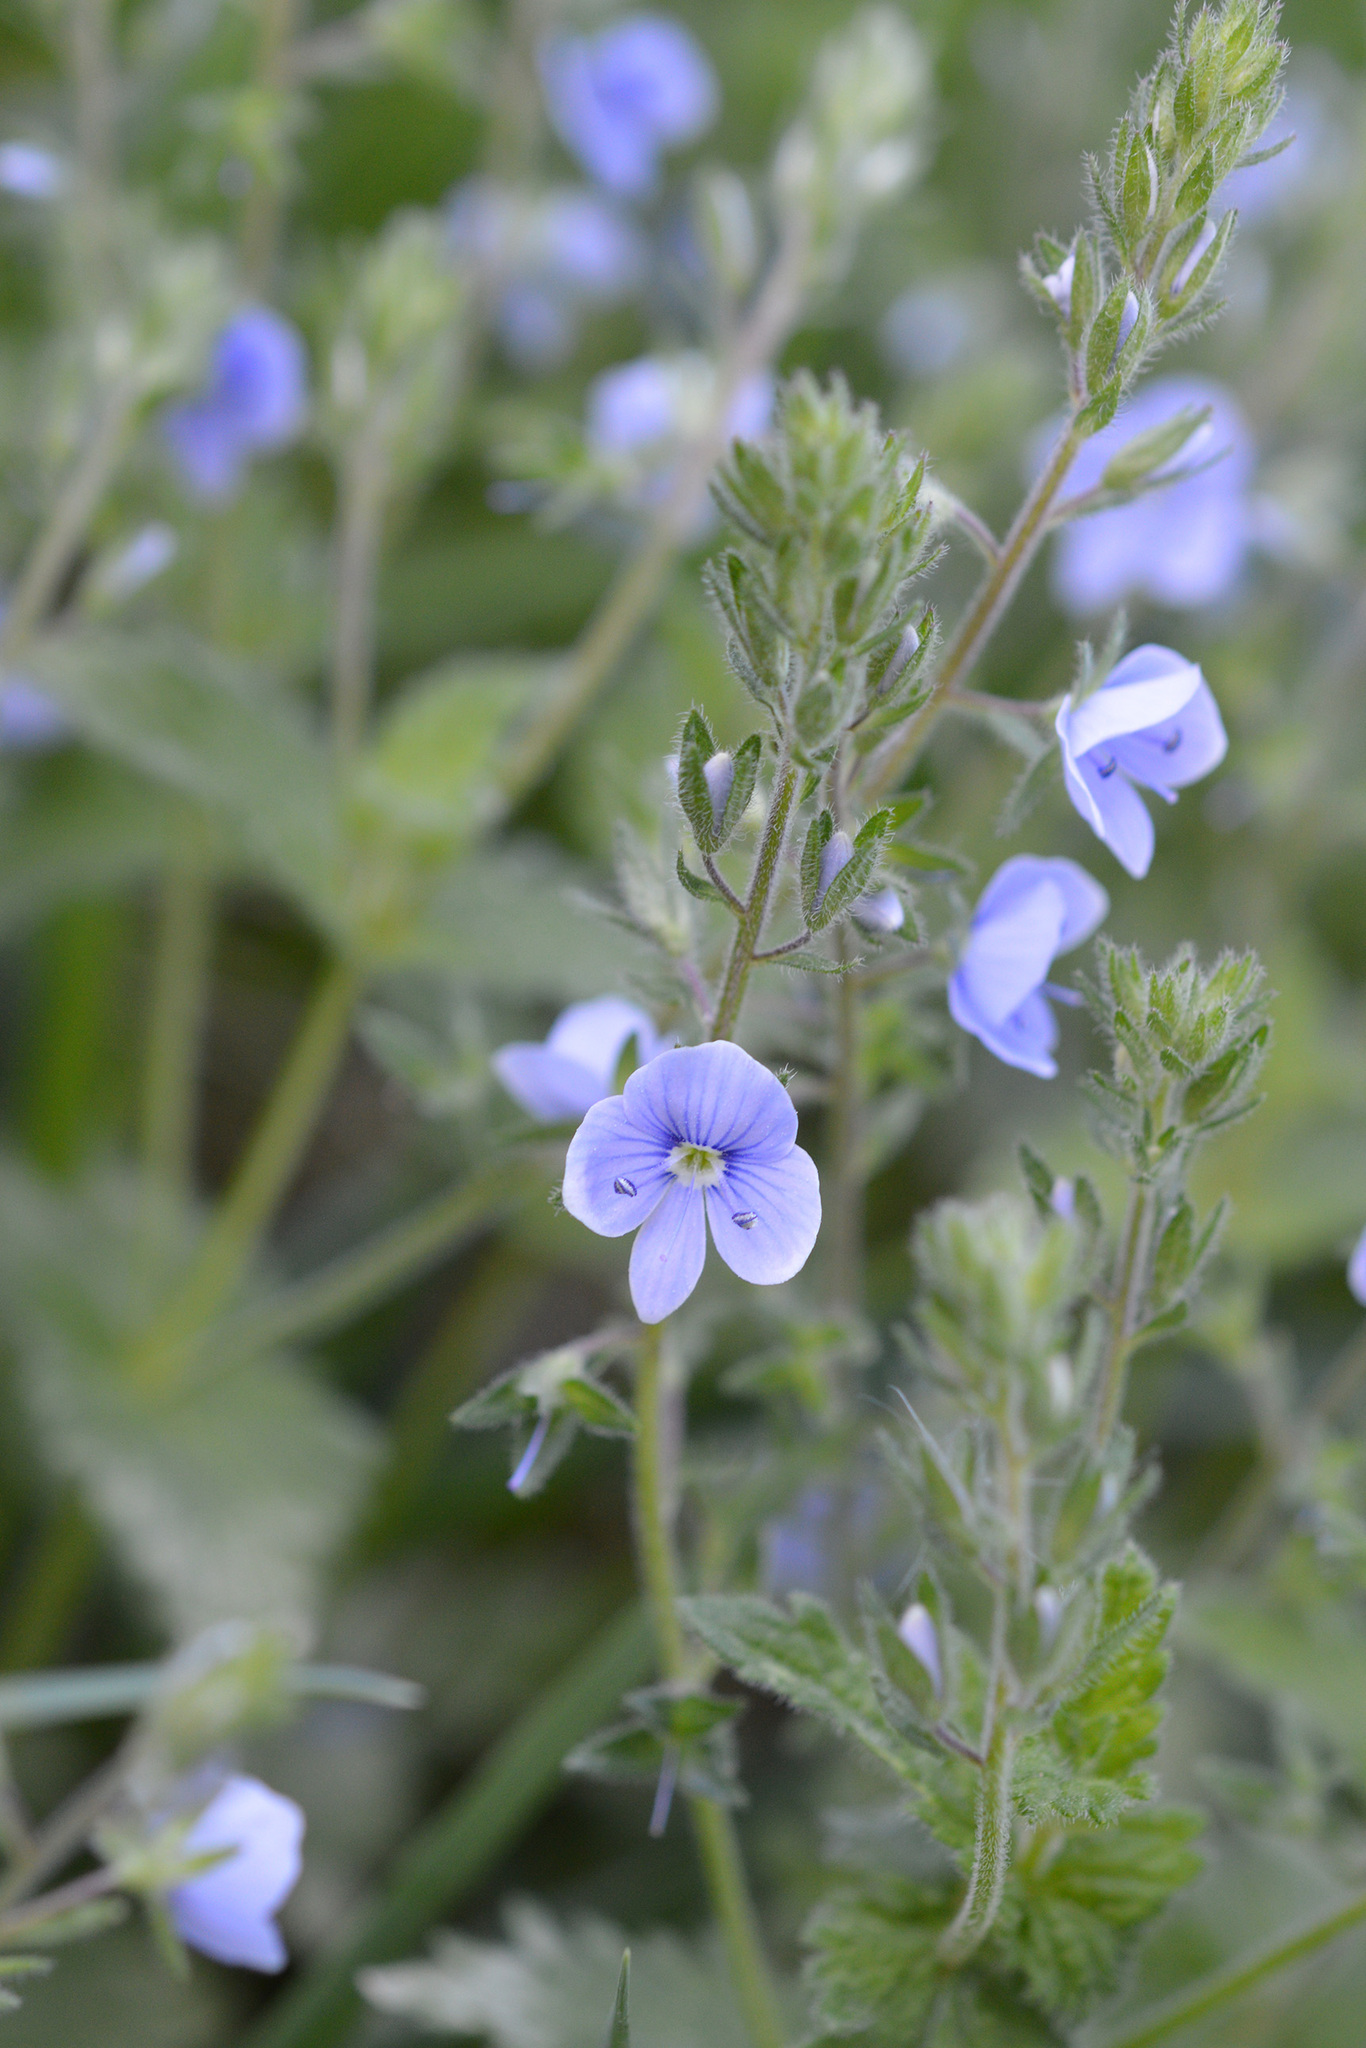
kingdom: Plantae
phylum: Tracheophyta
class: Magnoliopsida
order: Lamiales
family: Plantaginaceae
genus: Veronica
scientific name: Veronica chamaedrys
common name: Germander speedwell
